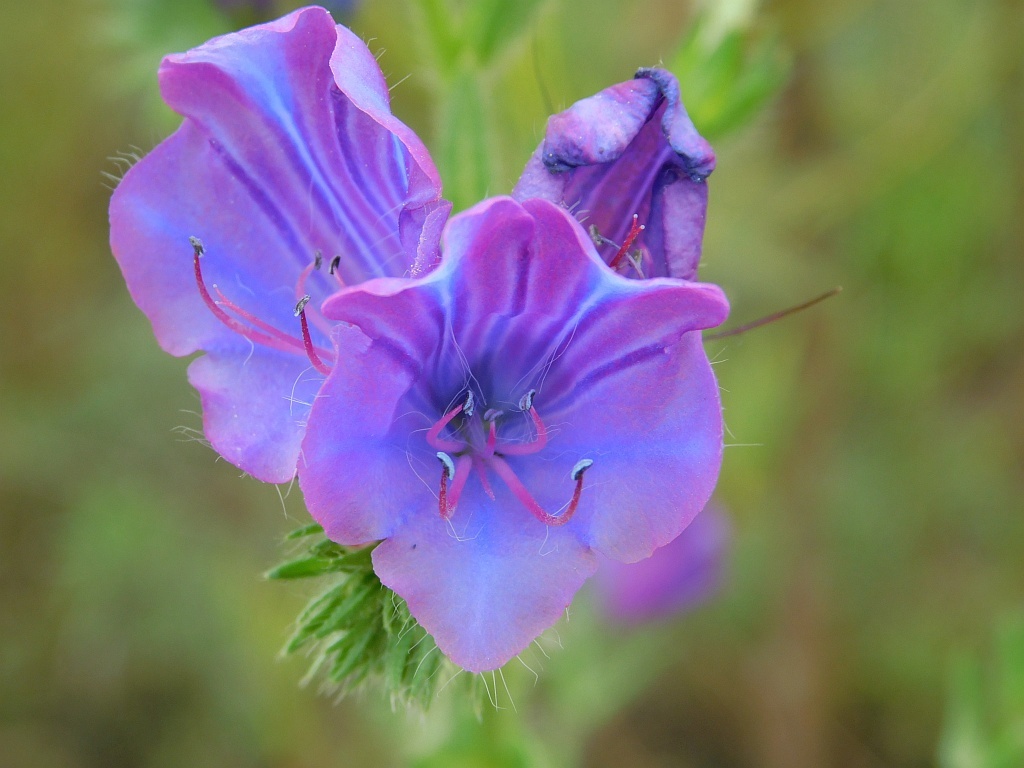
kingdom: Plantae
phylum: Tracheophyta
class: Magnoliopsida
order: Boraginales
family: Boraginaceae
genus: Echium
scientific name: Echium plantagineum
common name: Purple viper's-bugloss
